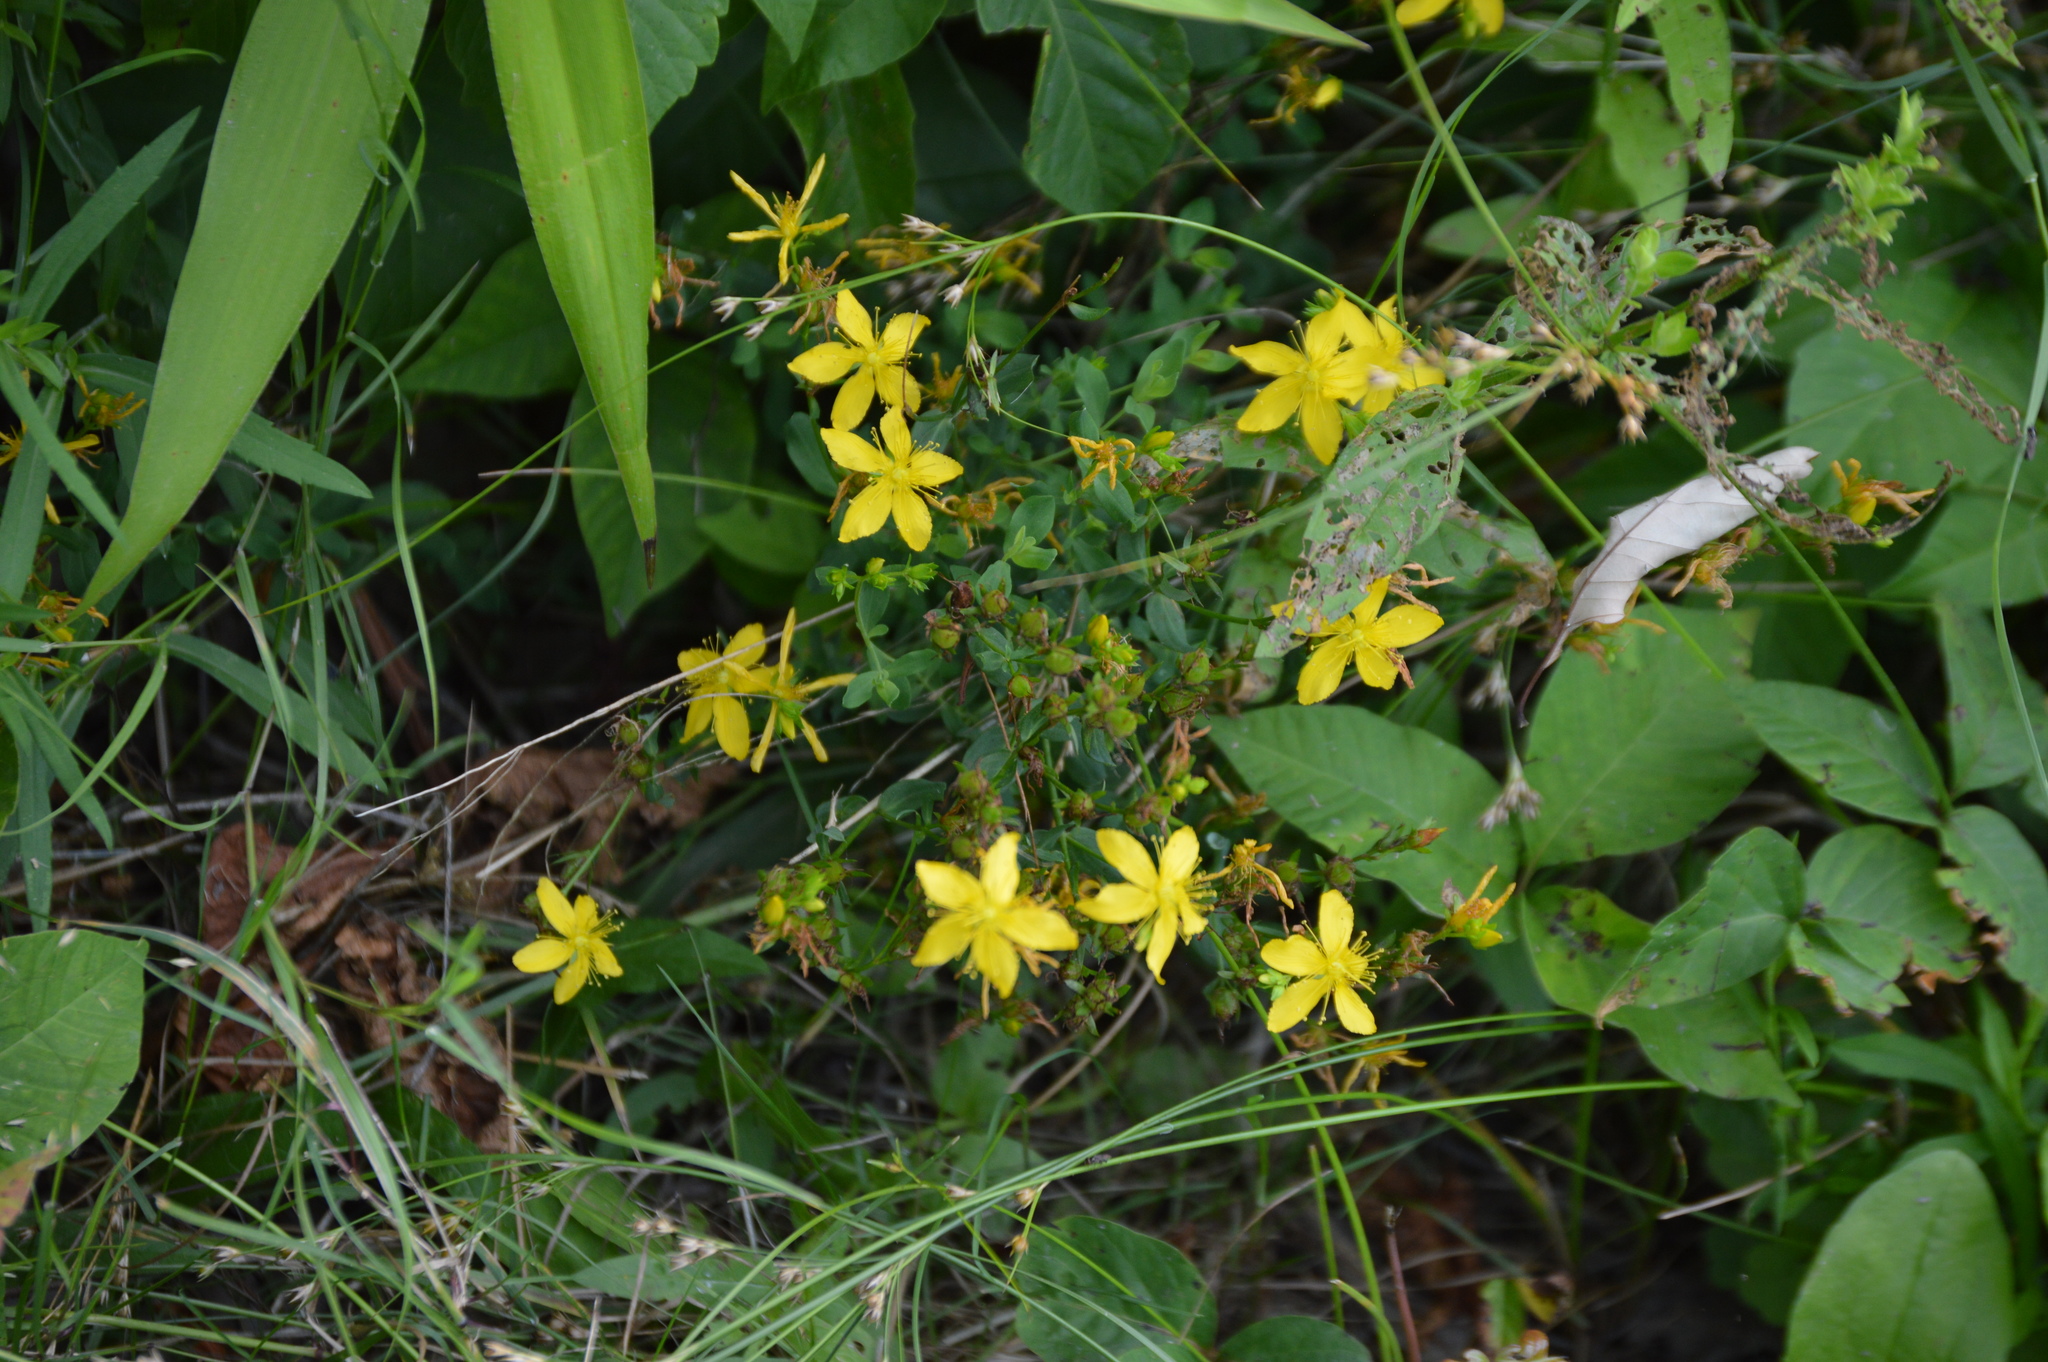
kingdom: Plantae
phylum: Tracheophyta
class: Magnoliopsida
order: Malpighiales
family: Hypericaceae
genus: Hypericum
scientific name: Hypericum perforatum
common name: Common st. johnswort
